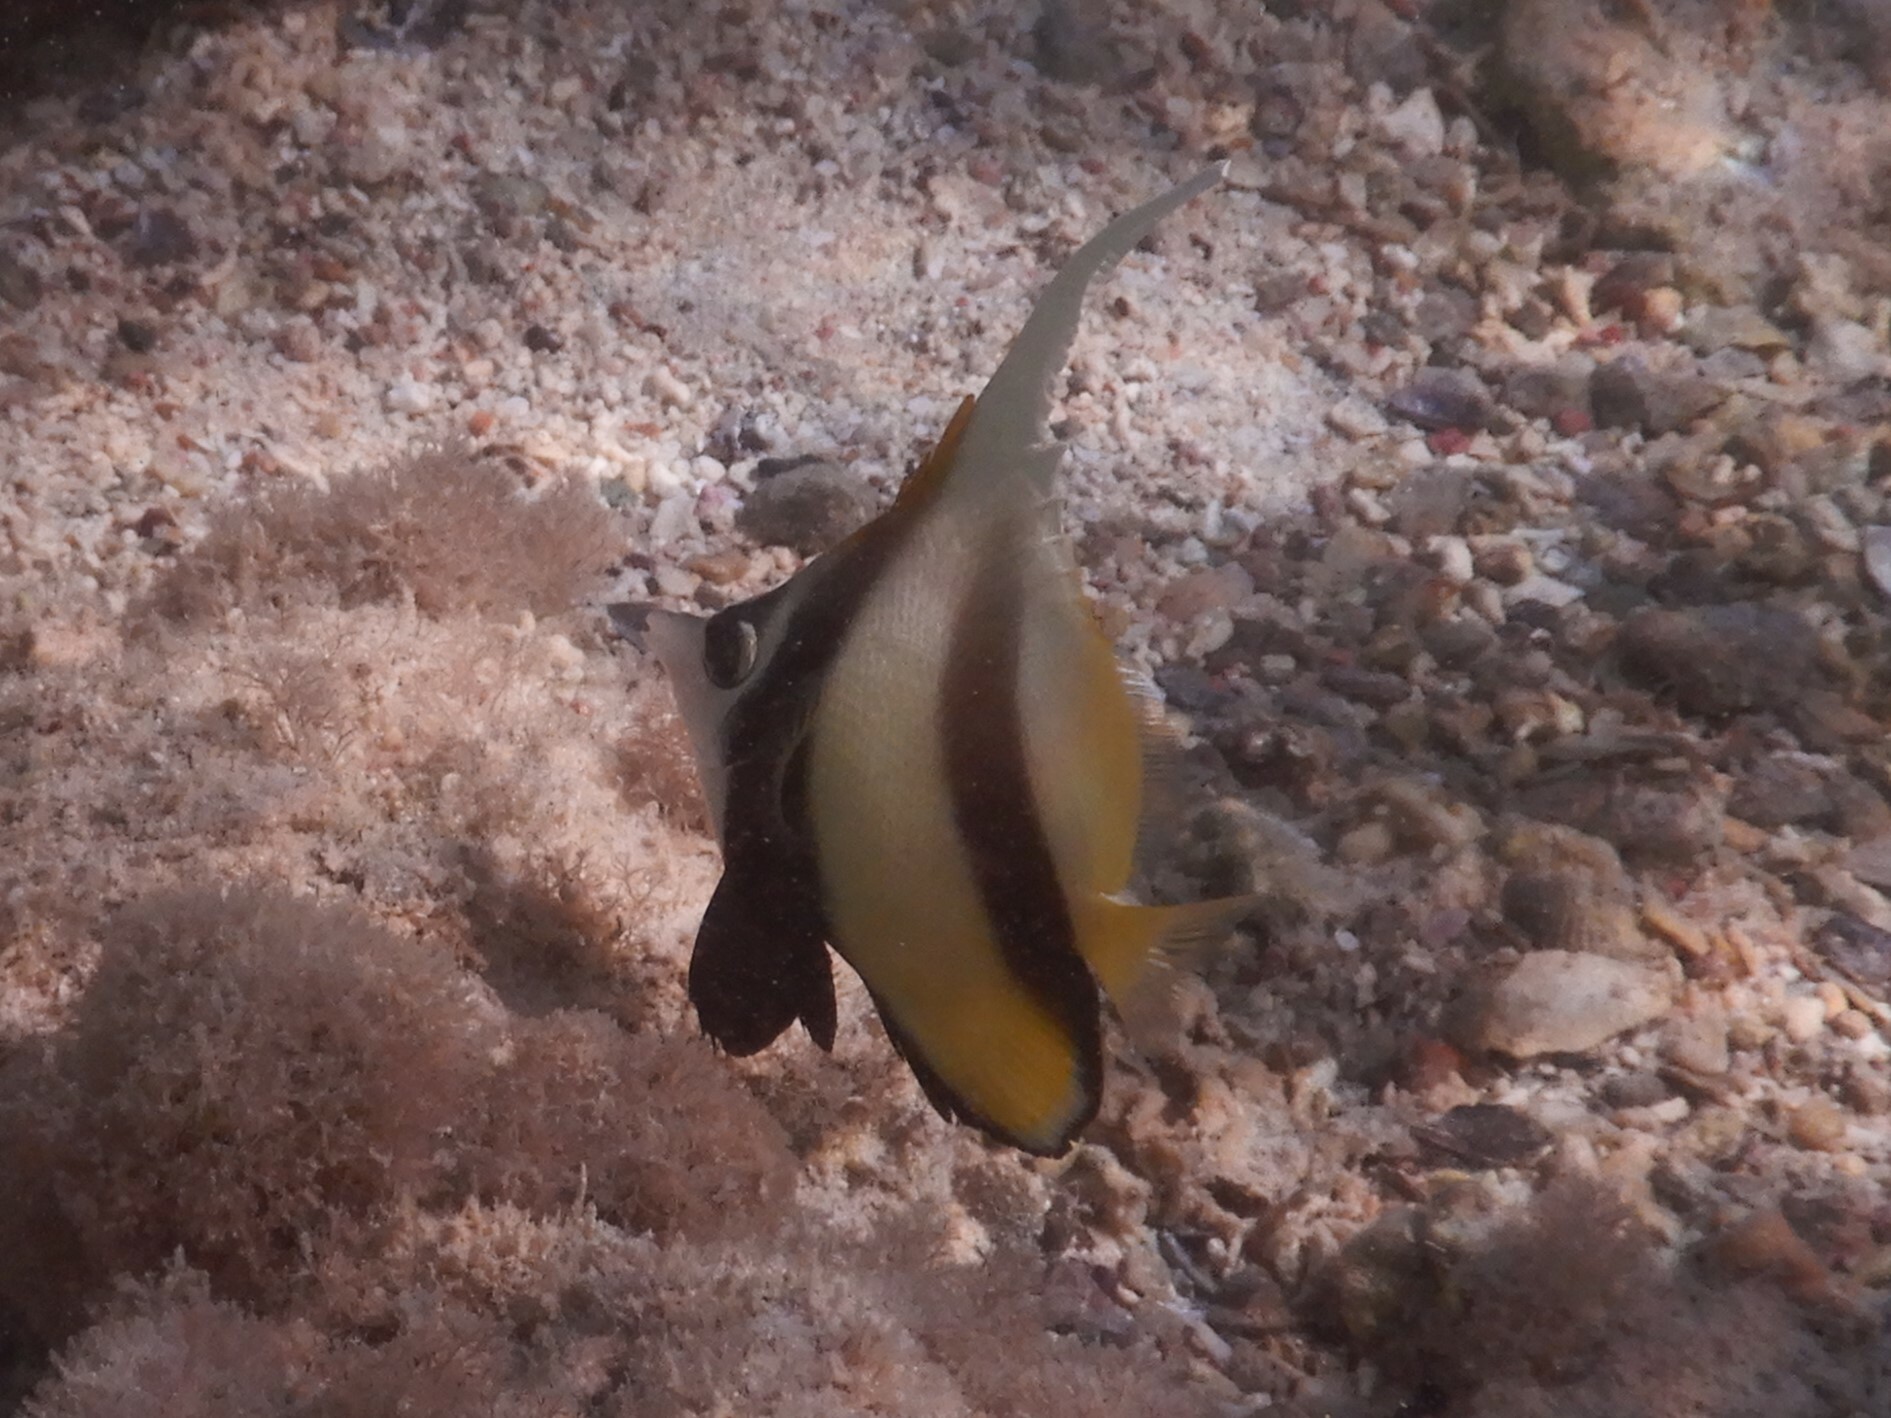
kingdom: Animalia
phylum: Chordata
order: Perciformes
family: Chaetodontidae
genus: Heniochus
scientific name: Heniochus intermedius
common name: Red sea bannerfish
